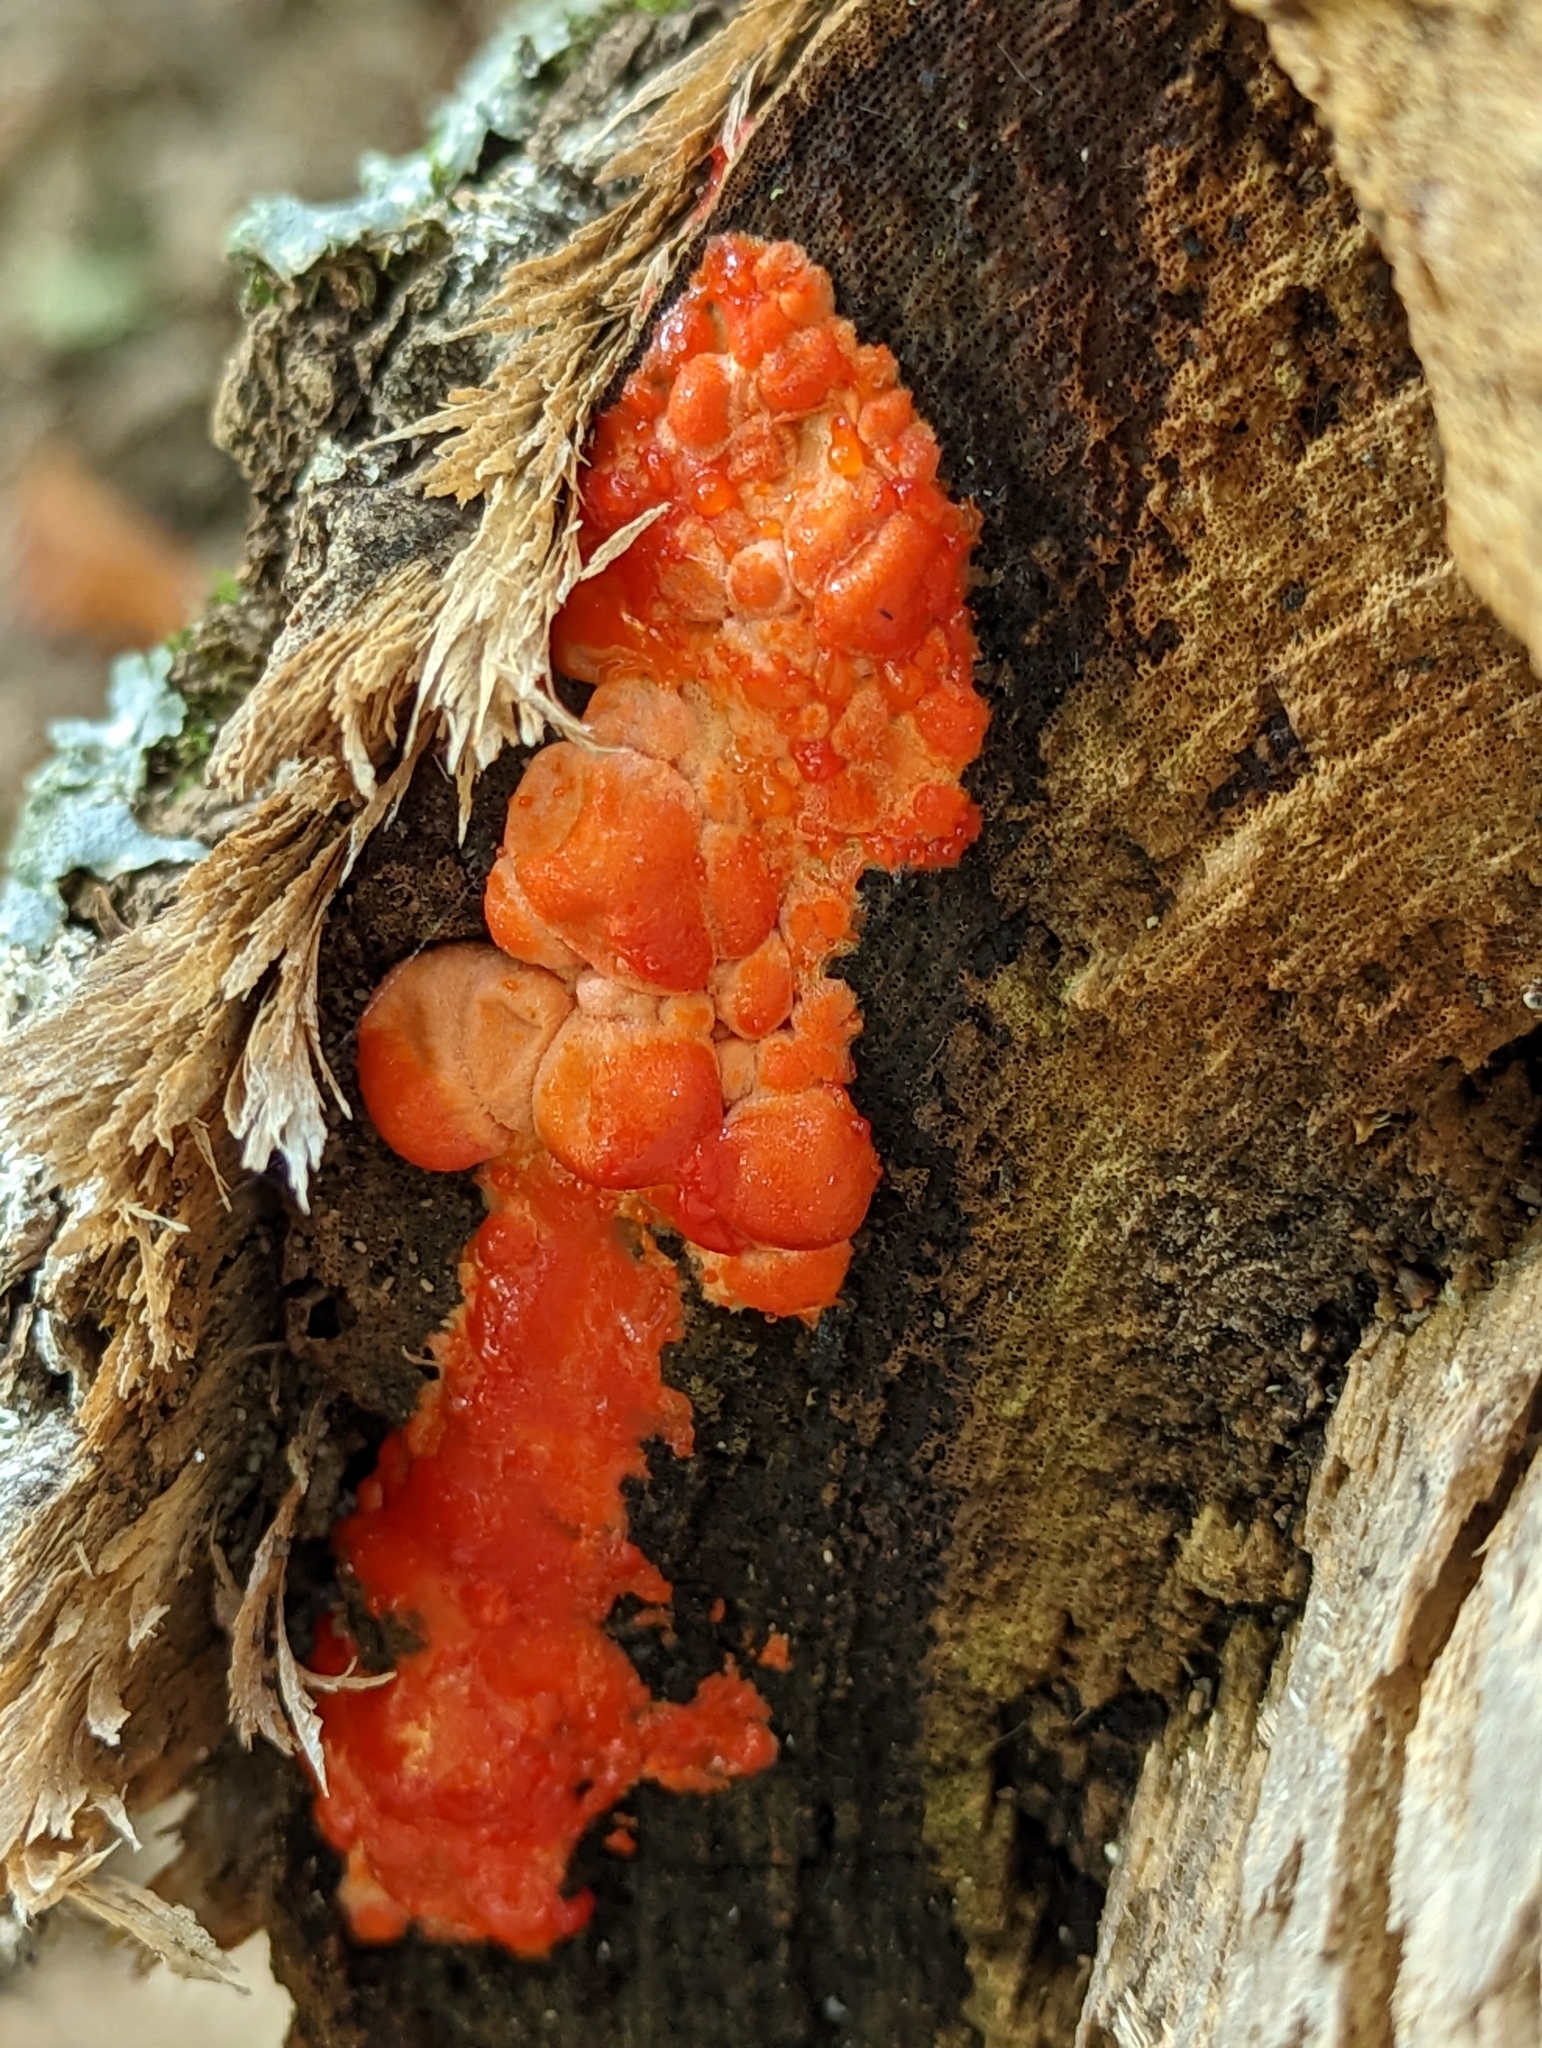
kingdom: Fungi
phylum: Basidiomycota
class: Agaricomycetes
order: Cantharellales
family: Tulasnellaceae
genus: Tulasnella
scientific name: Tulasnella aurantiaca
